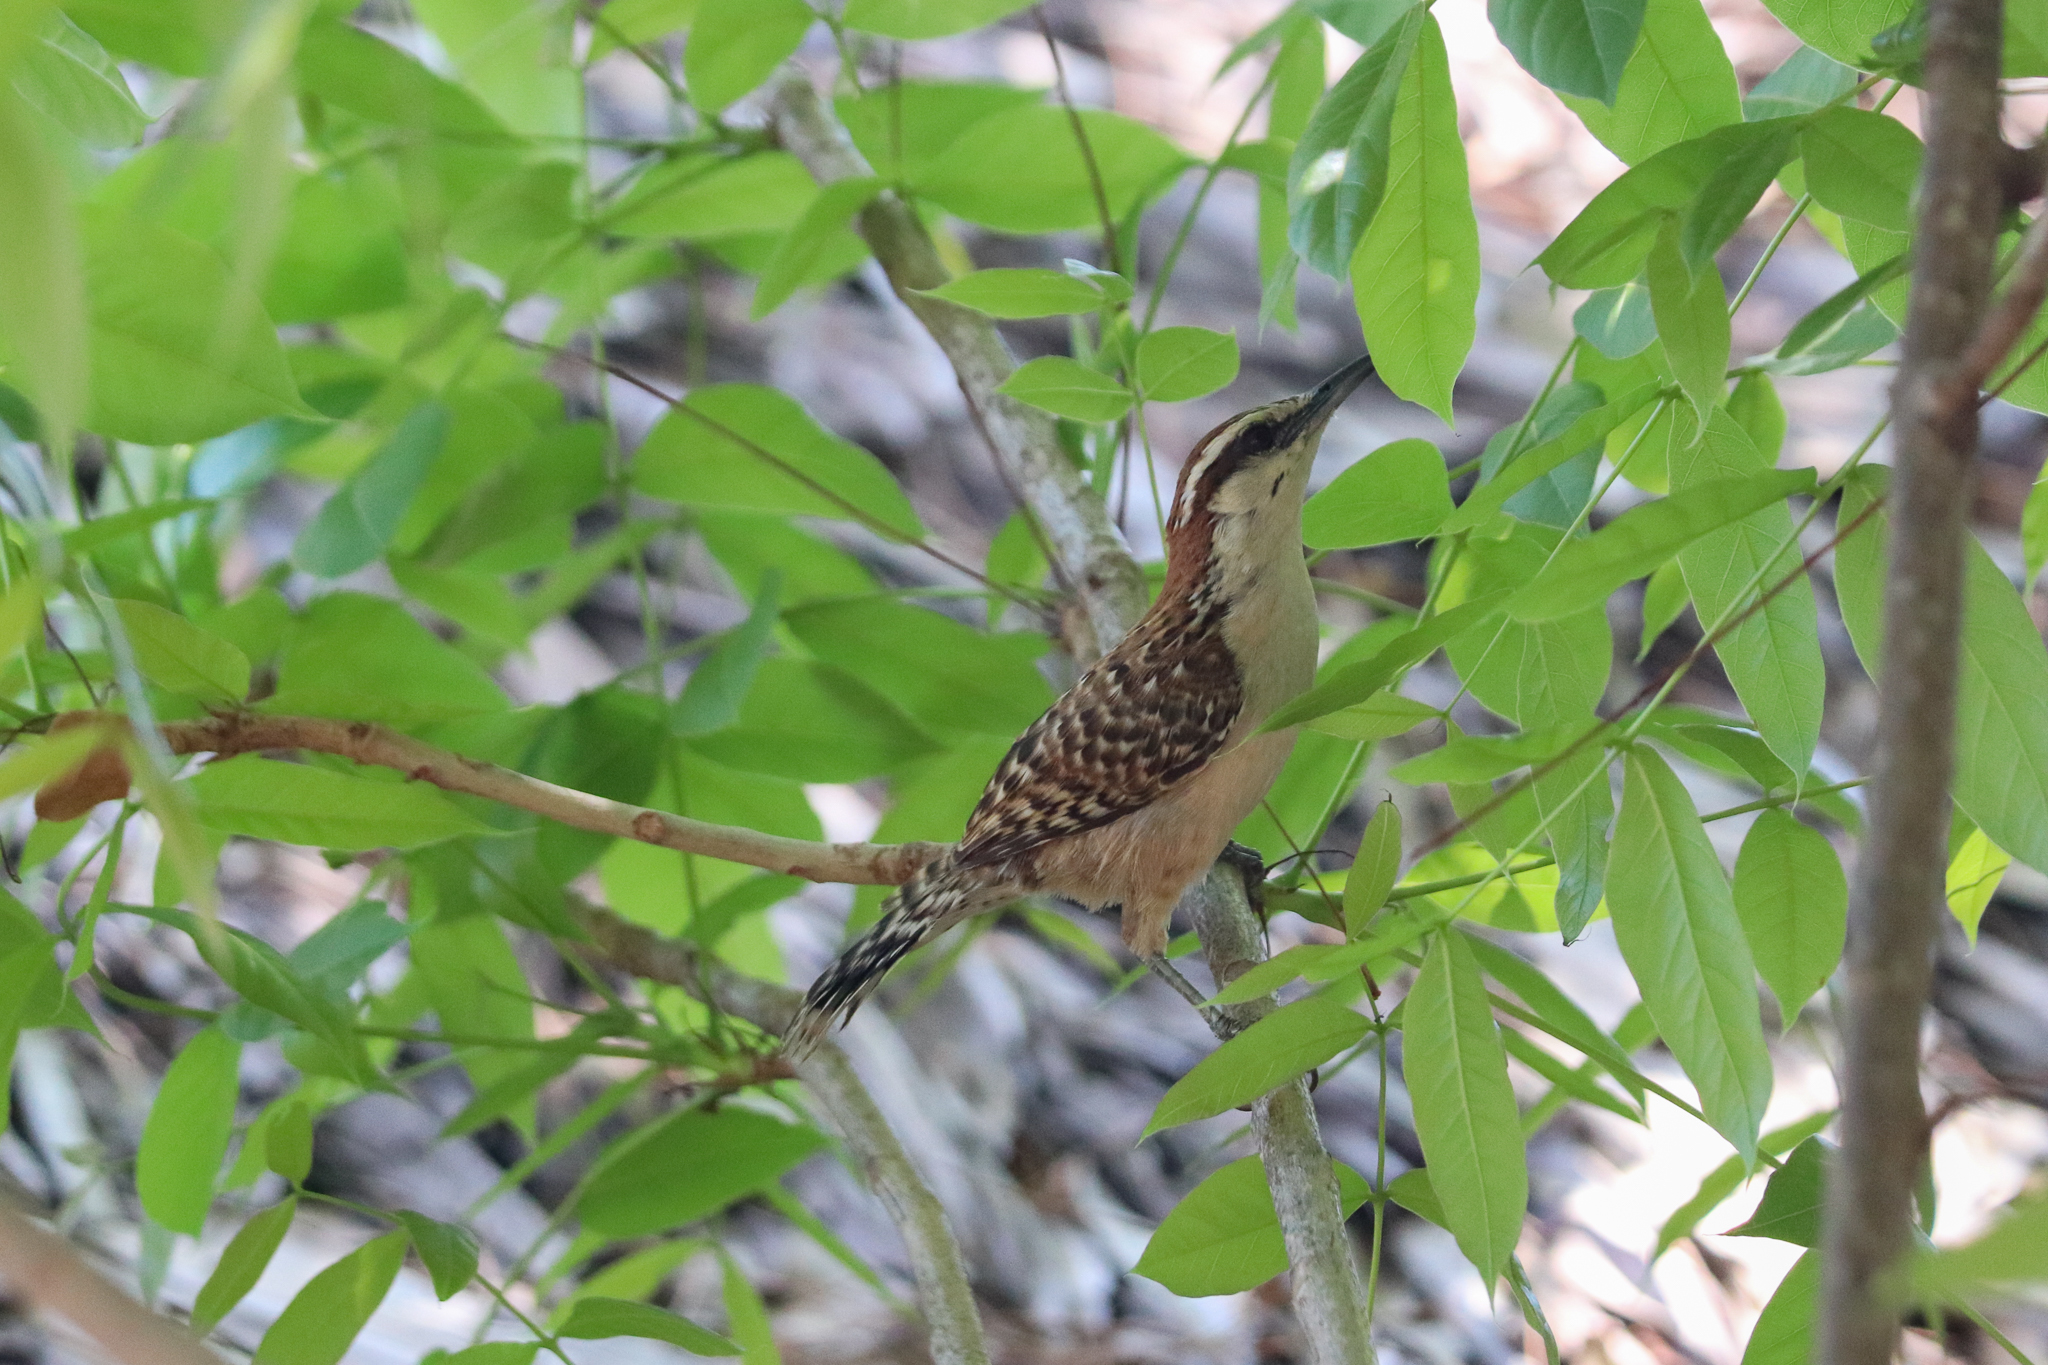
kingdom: Animalia
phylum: Chordata
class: Aves
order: Passeriformes
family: Troglodytidae
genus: Campylorhynchus
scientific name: Campylorhynchus rufinucha
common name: Rufous-naped wren
